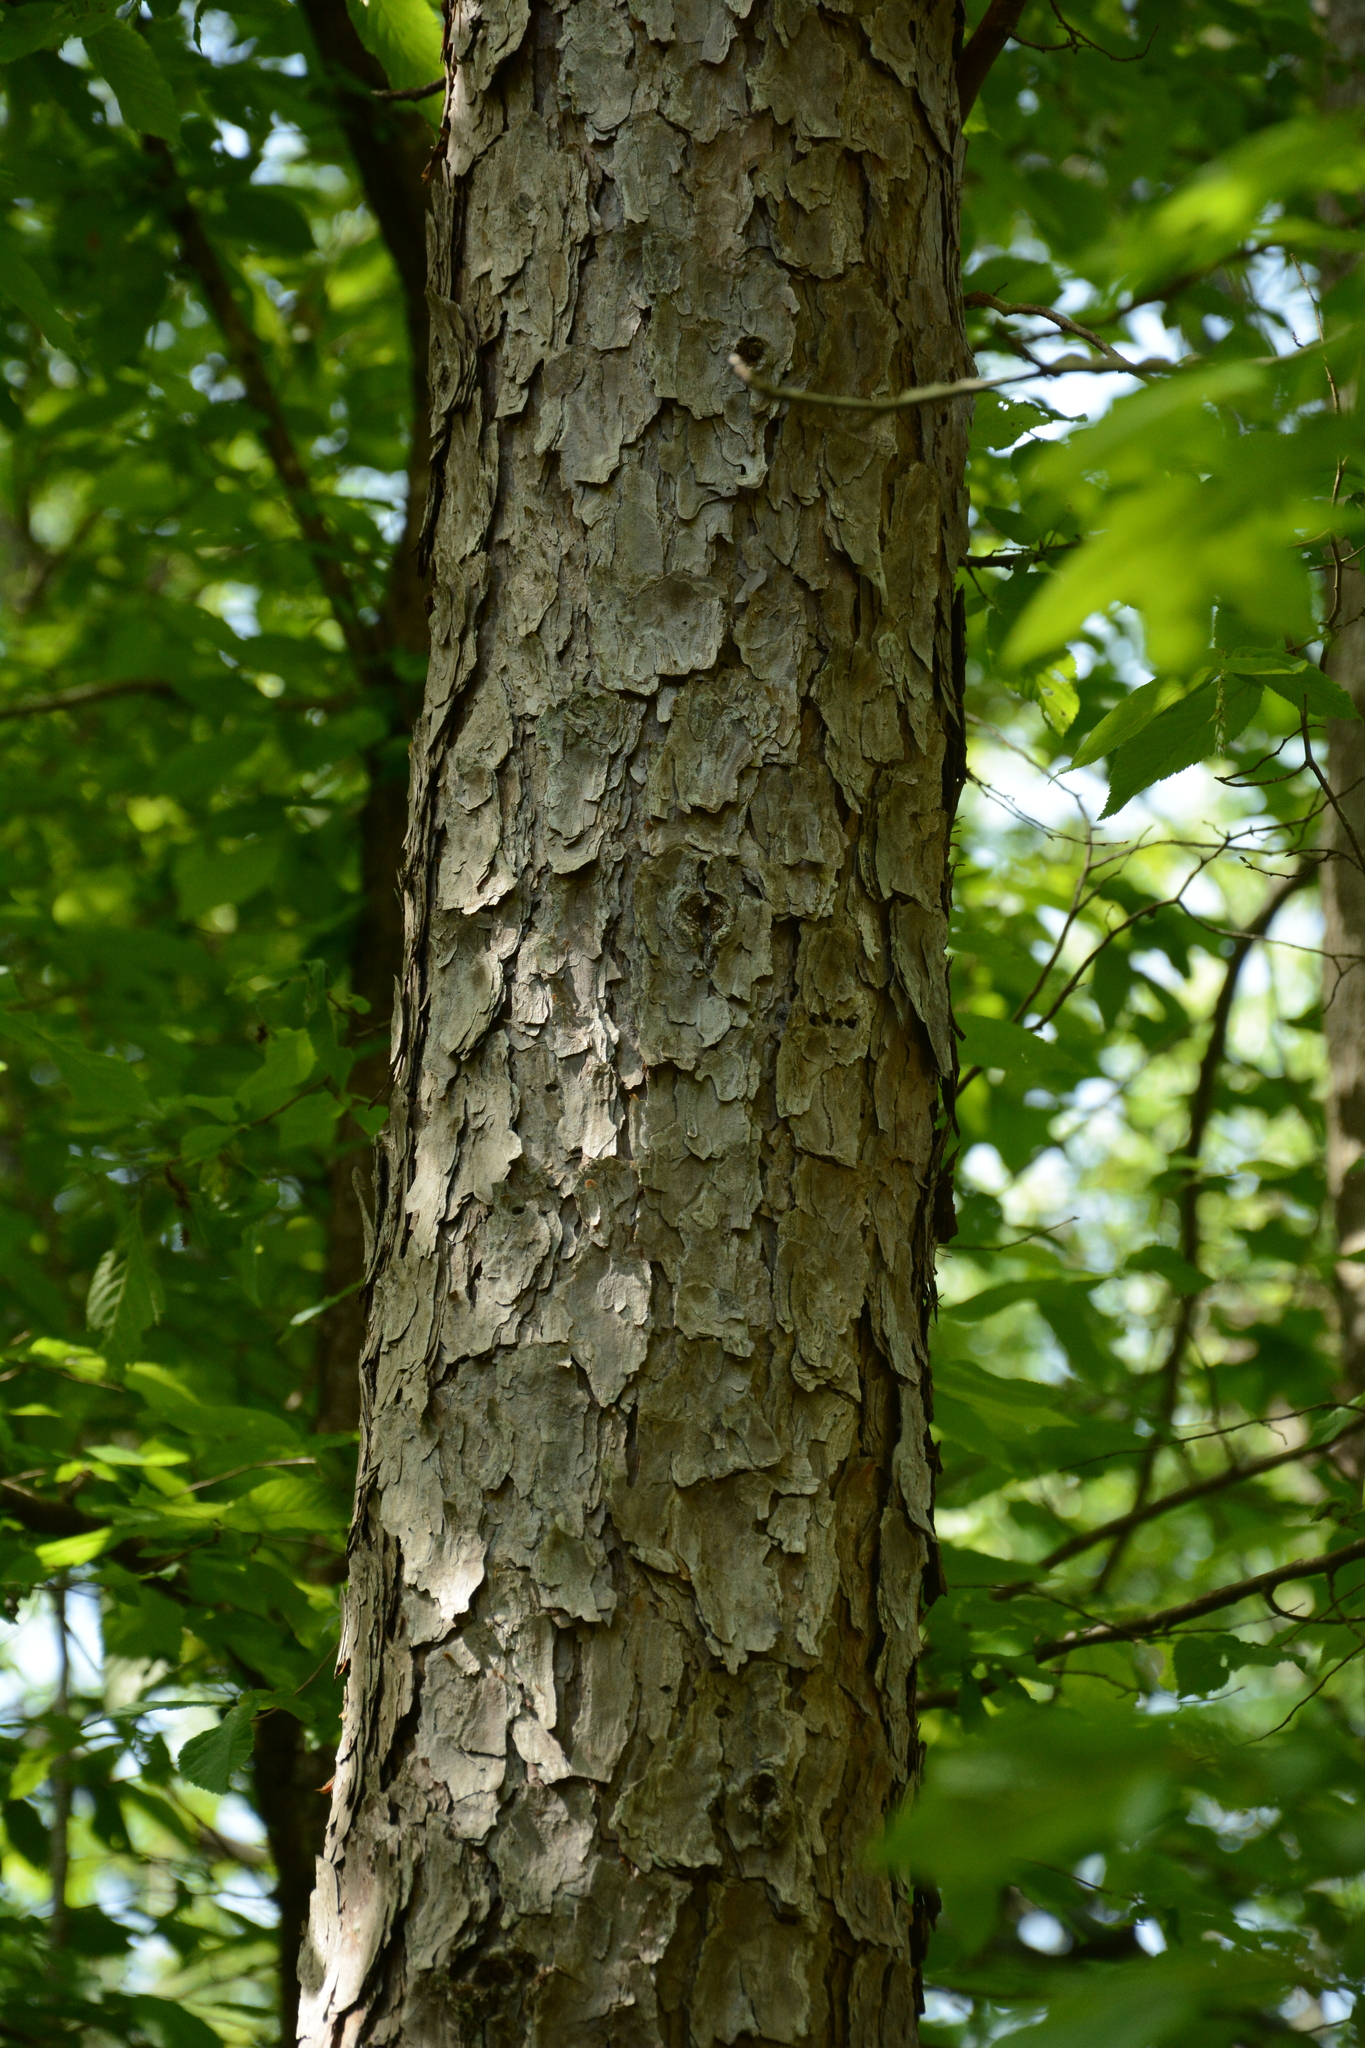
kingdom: Plantae
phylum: Tracheophyta
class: Pinopsida
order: Pinales
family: Pinaceae
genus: Pinus
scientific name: Pinus echinata
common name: Shortleaf pine
